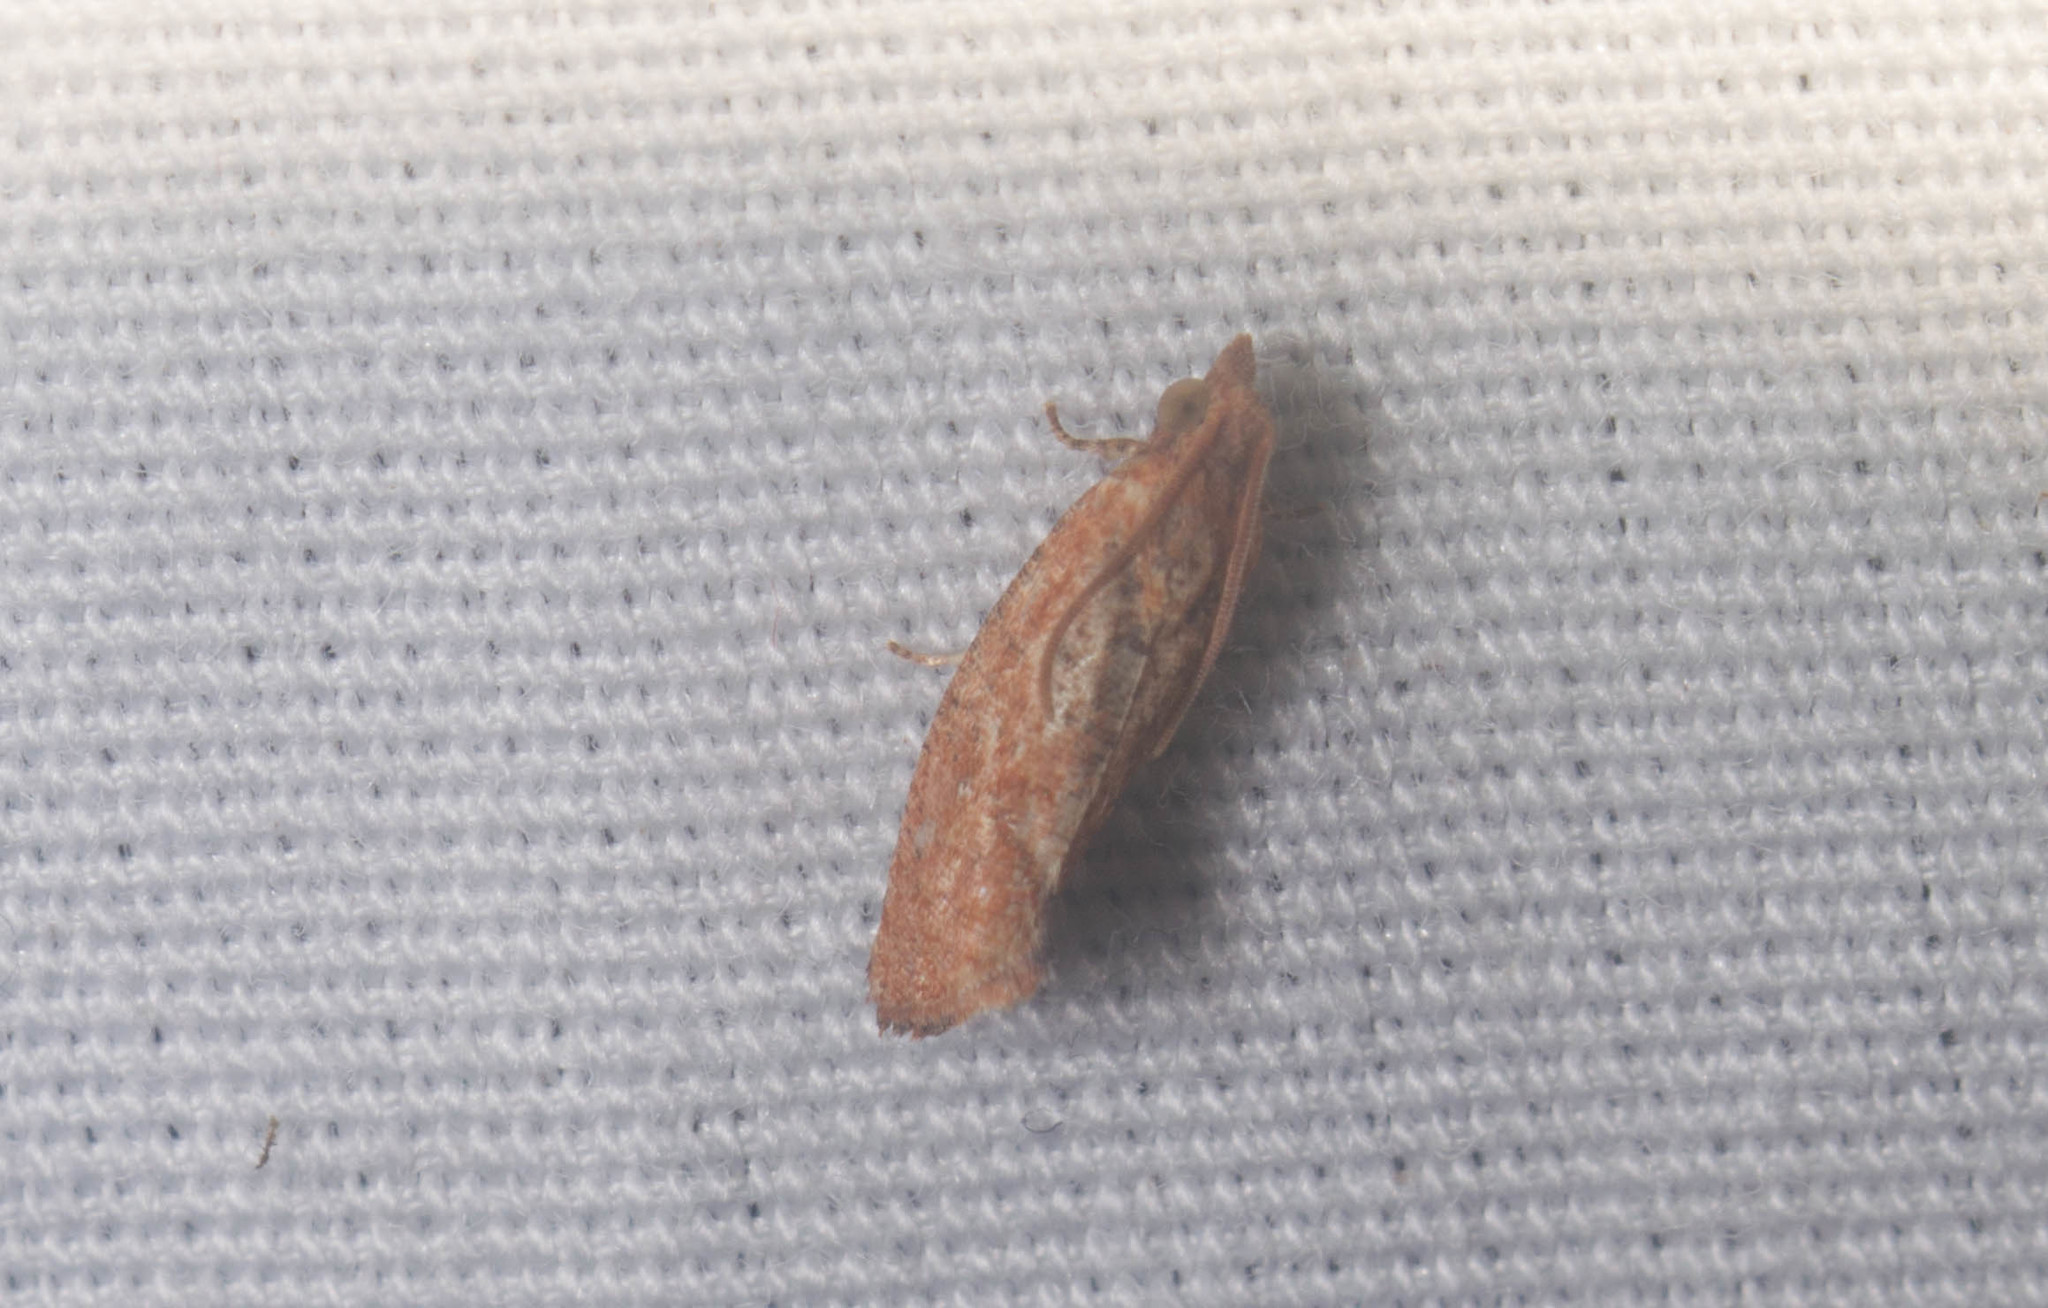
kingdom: Animalia
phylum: Arthropoda
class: Insecta
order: Lepidoptera
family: Tortricidae
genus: Cryptophlebia
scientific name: Cryptophlebia illepida
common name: Moth
